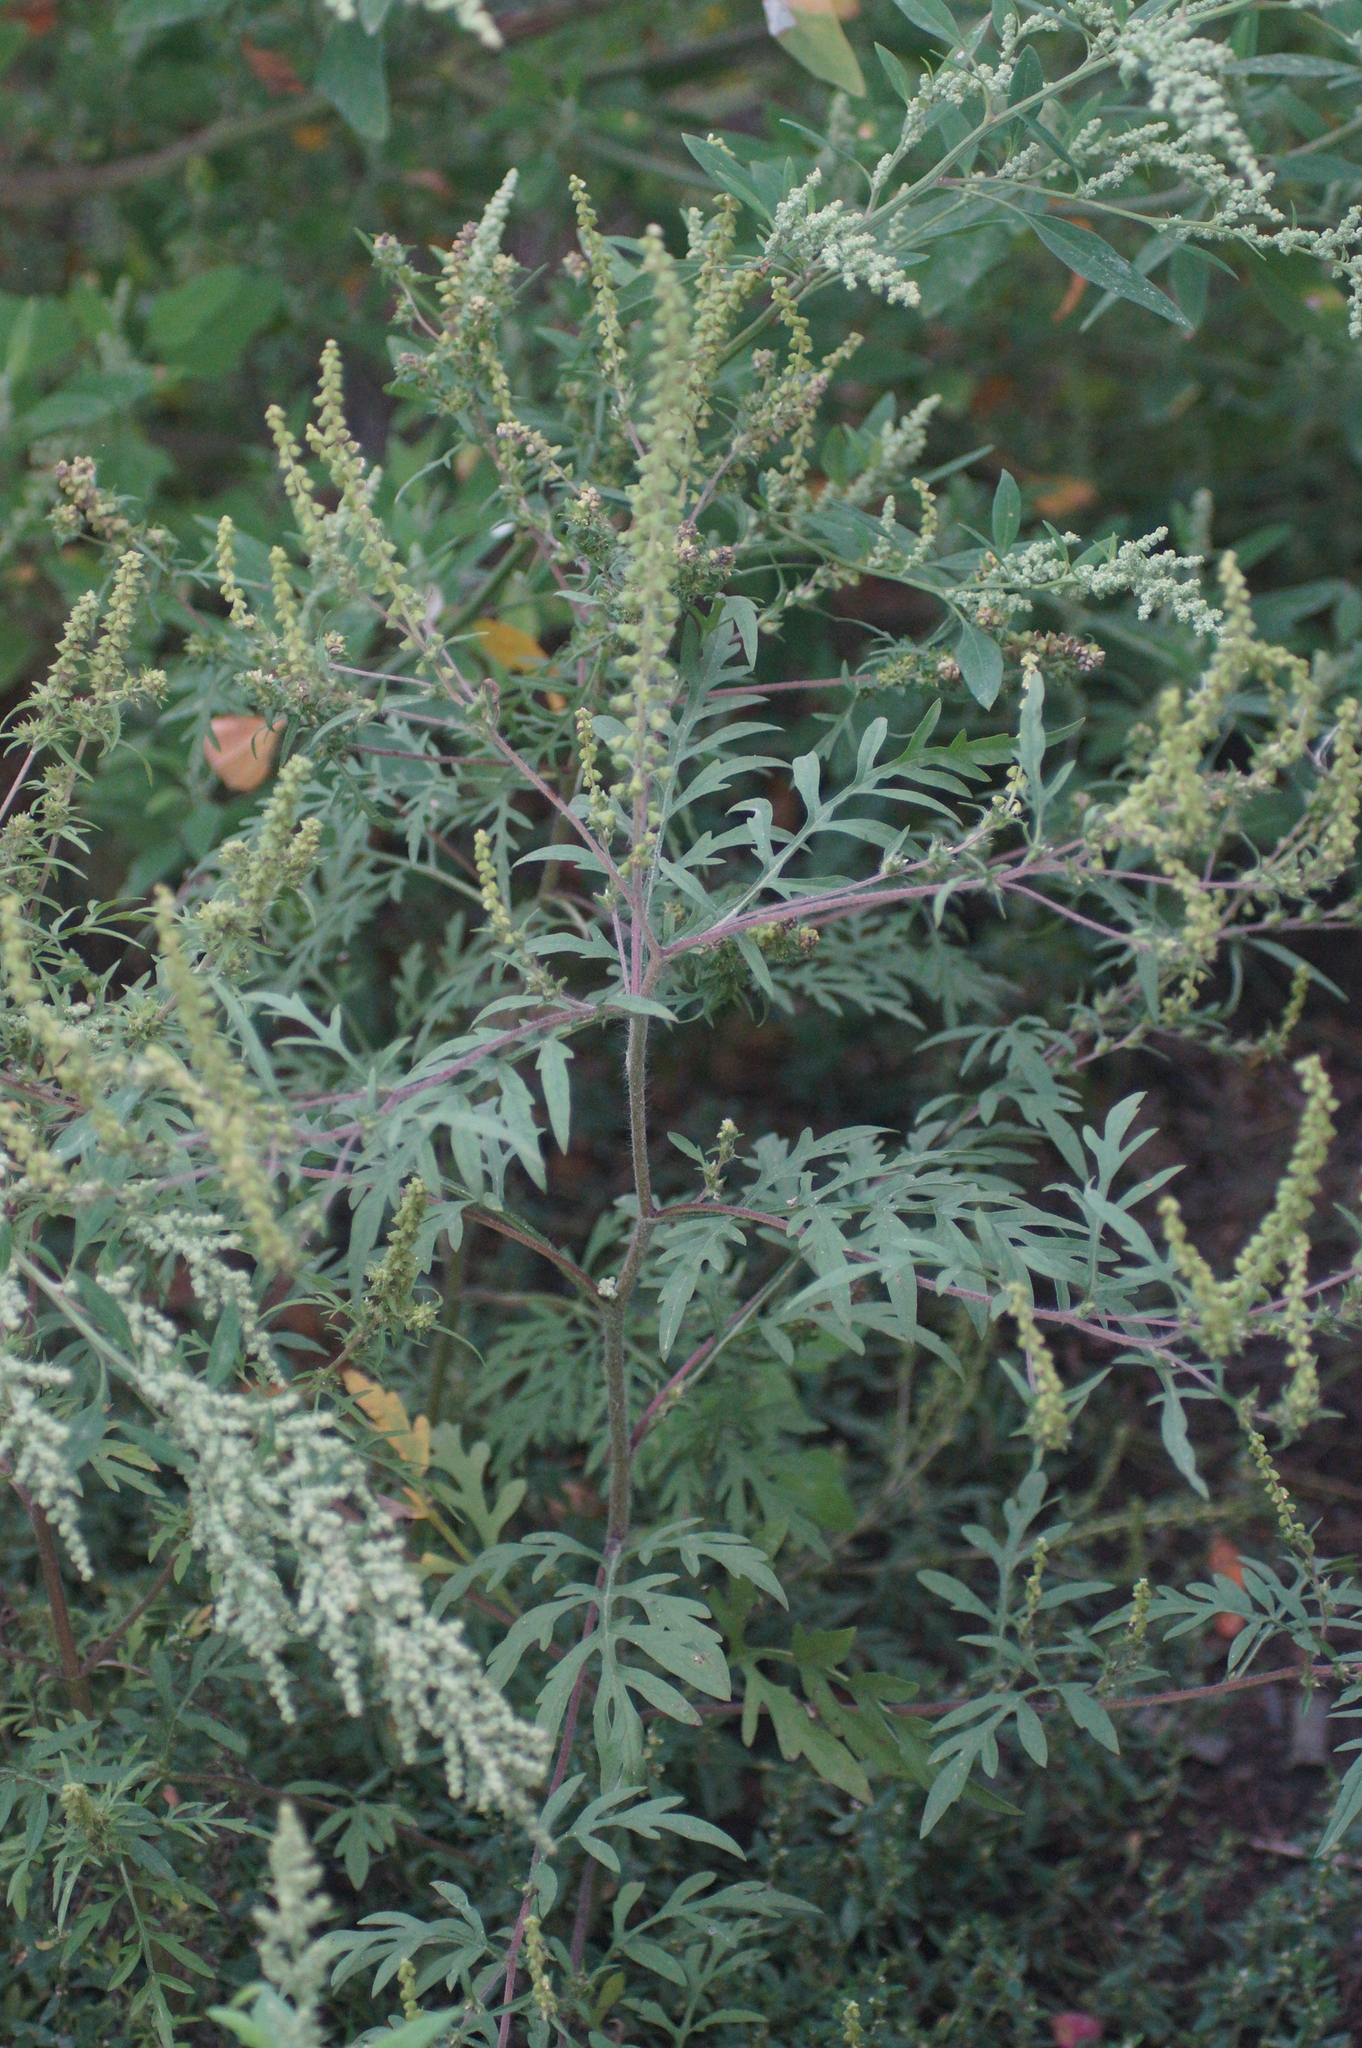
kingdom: Plantae
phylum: Tracheophyta
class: Magnoliopsida
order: Asterales
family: Asteraceae
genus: Ambrosia
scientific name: Ambrosia artemisiifolia
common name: Annual ragweed
